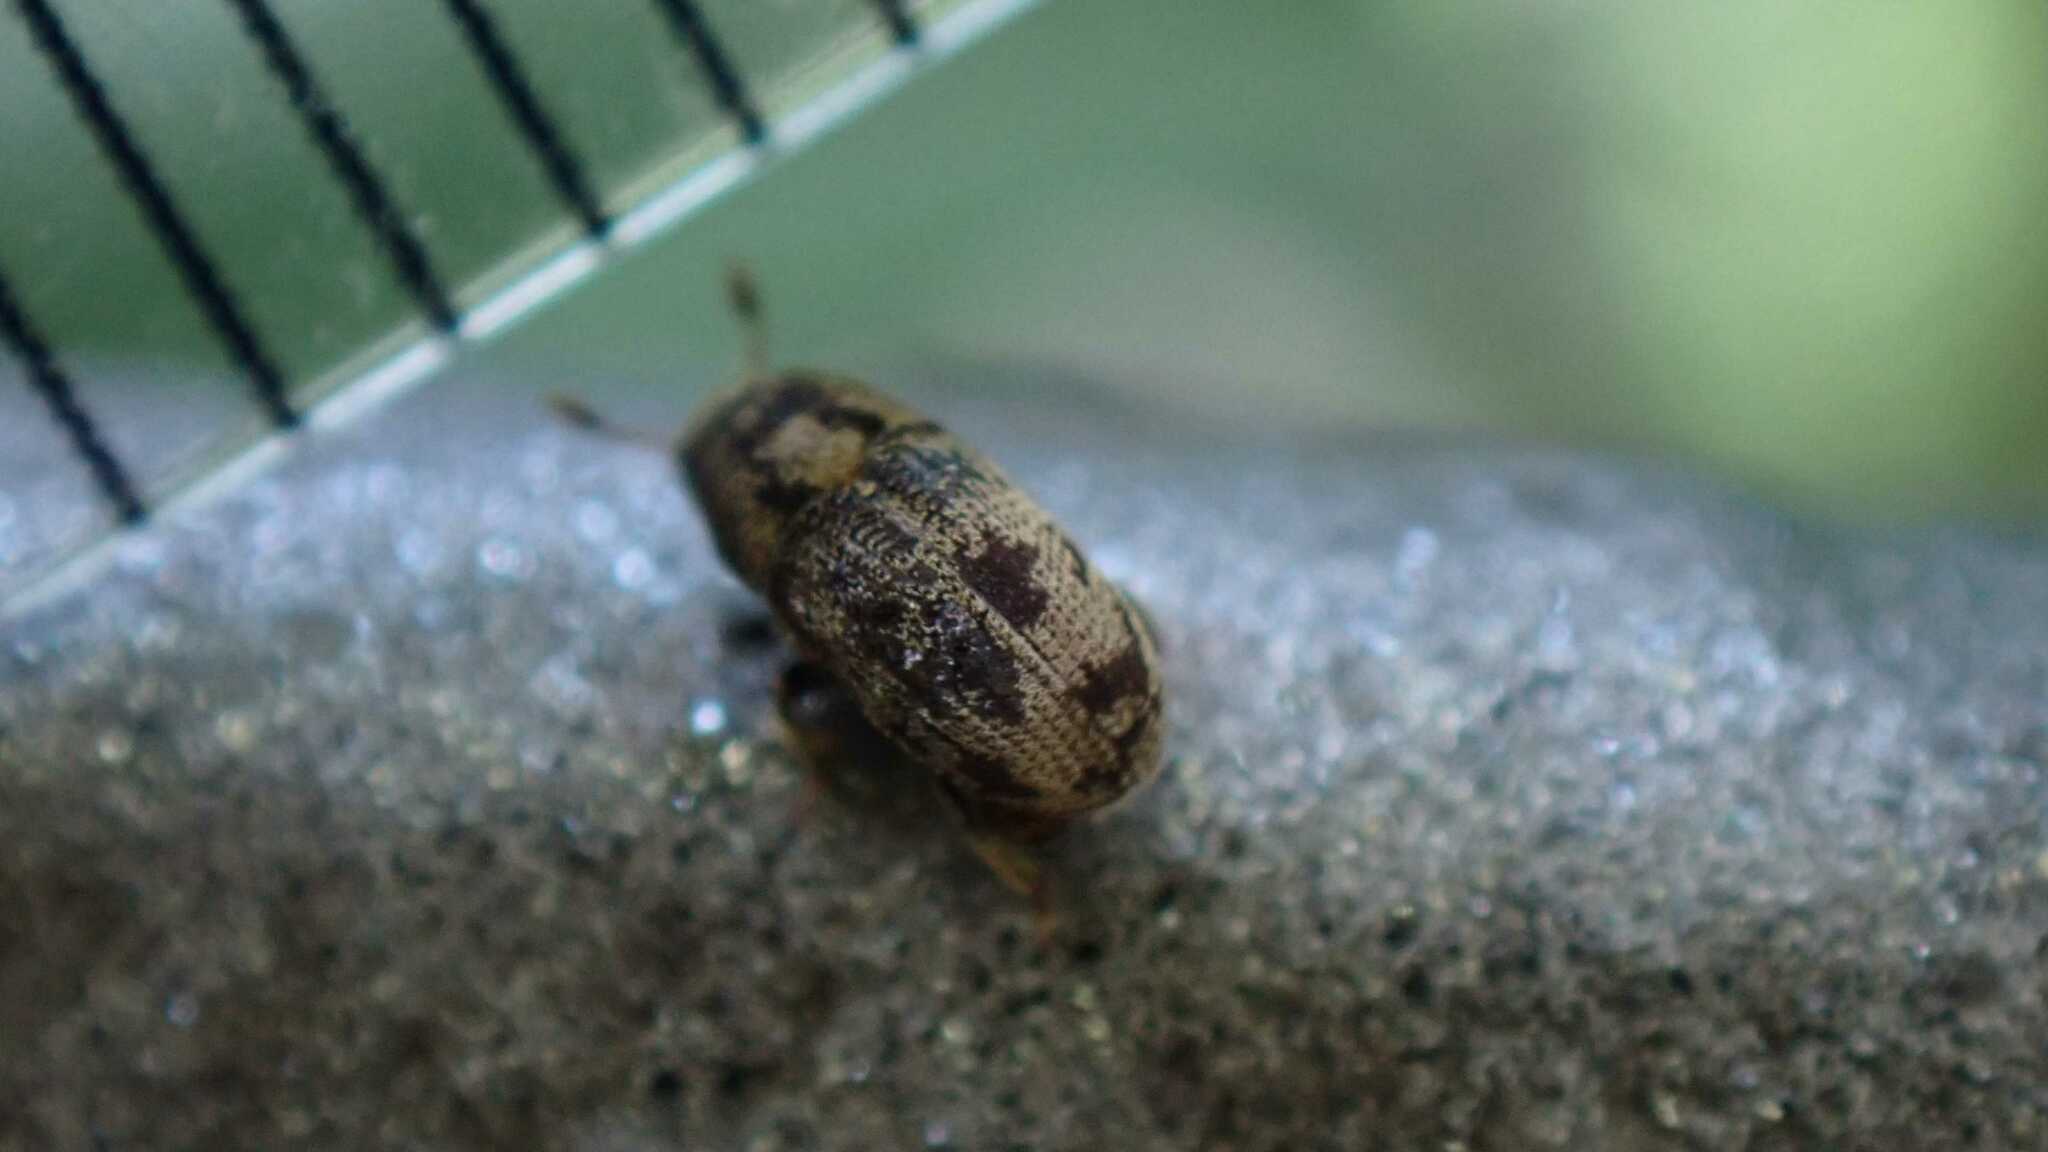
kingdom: Animalia
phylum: Arthropoda
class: Insecta
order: Coleoptera
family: Curculionidae
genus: Hylesinus
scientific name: Hylesinus varius
